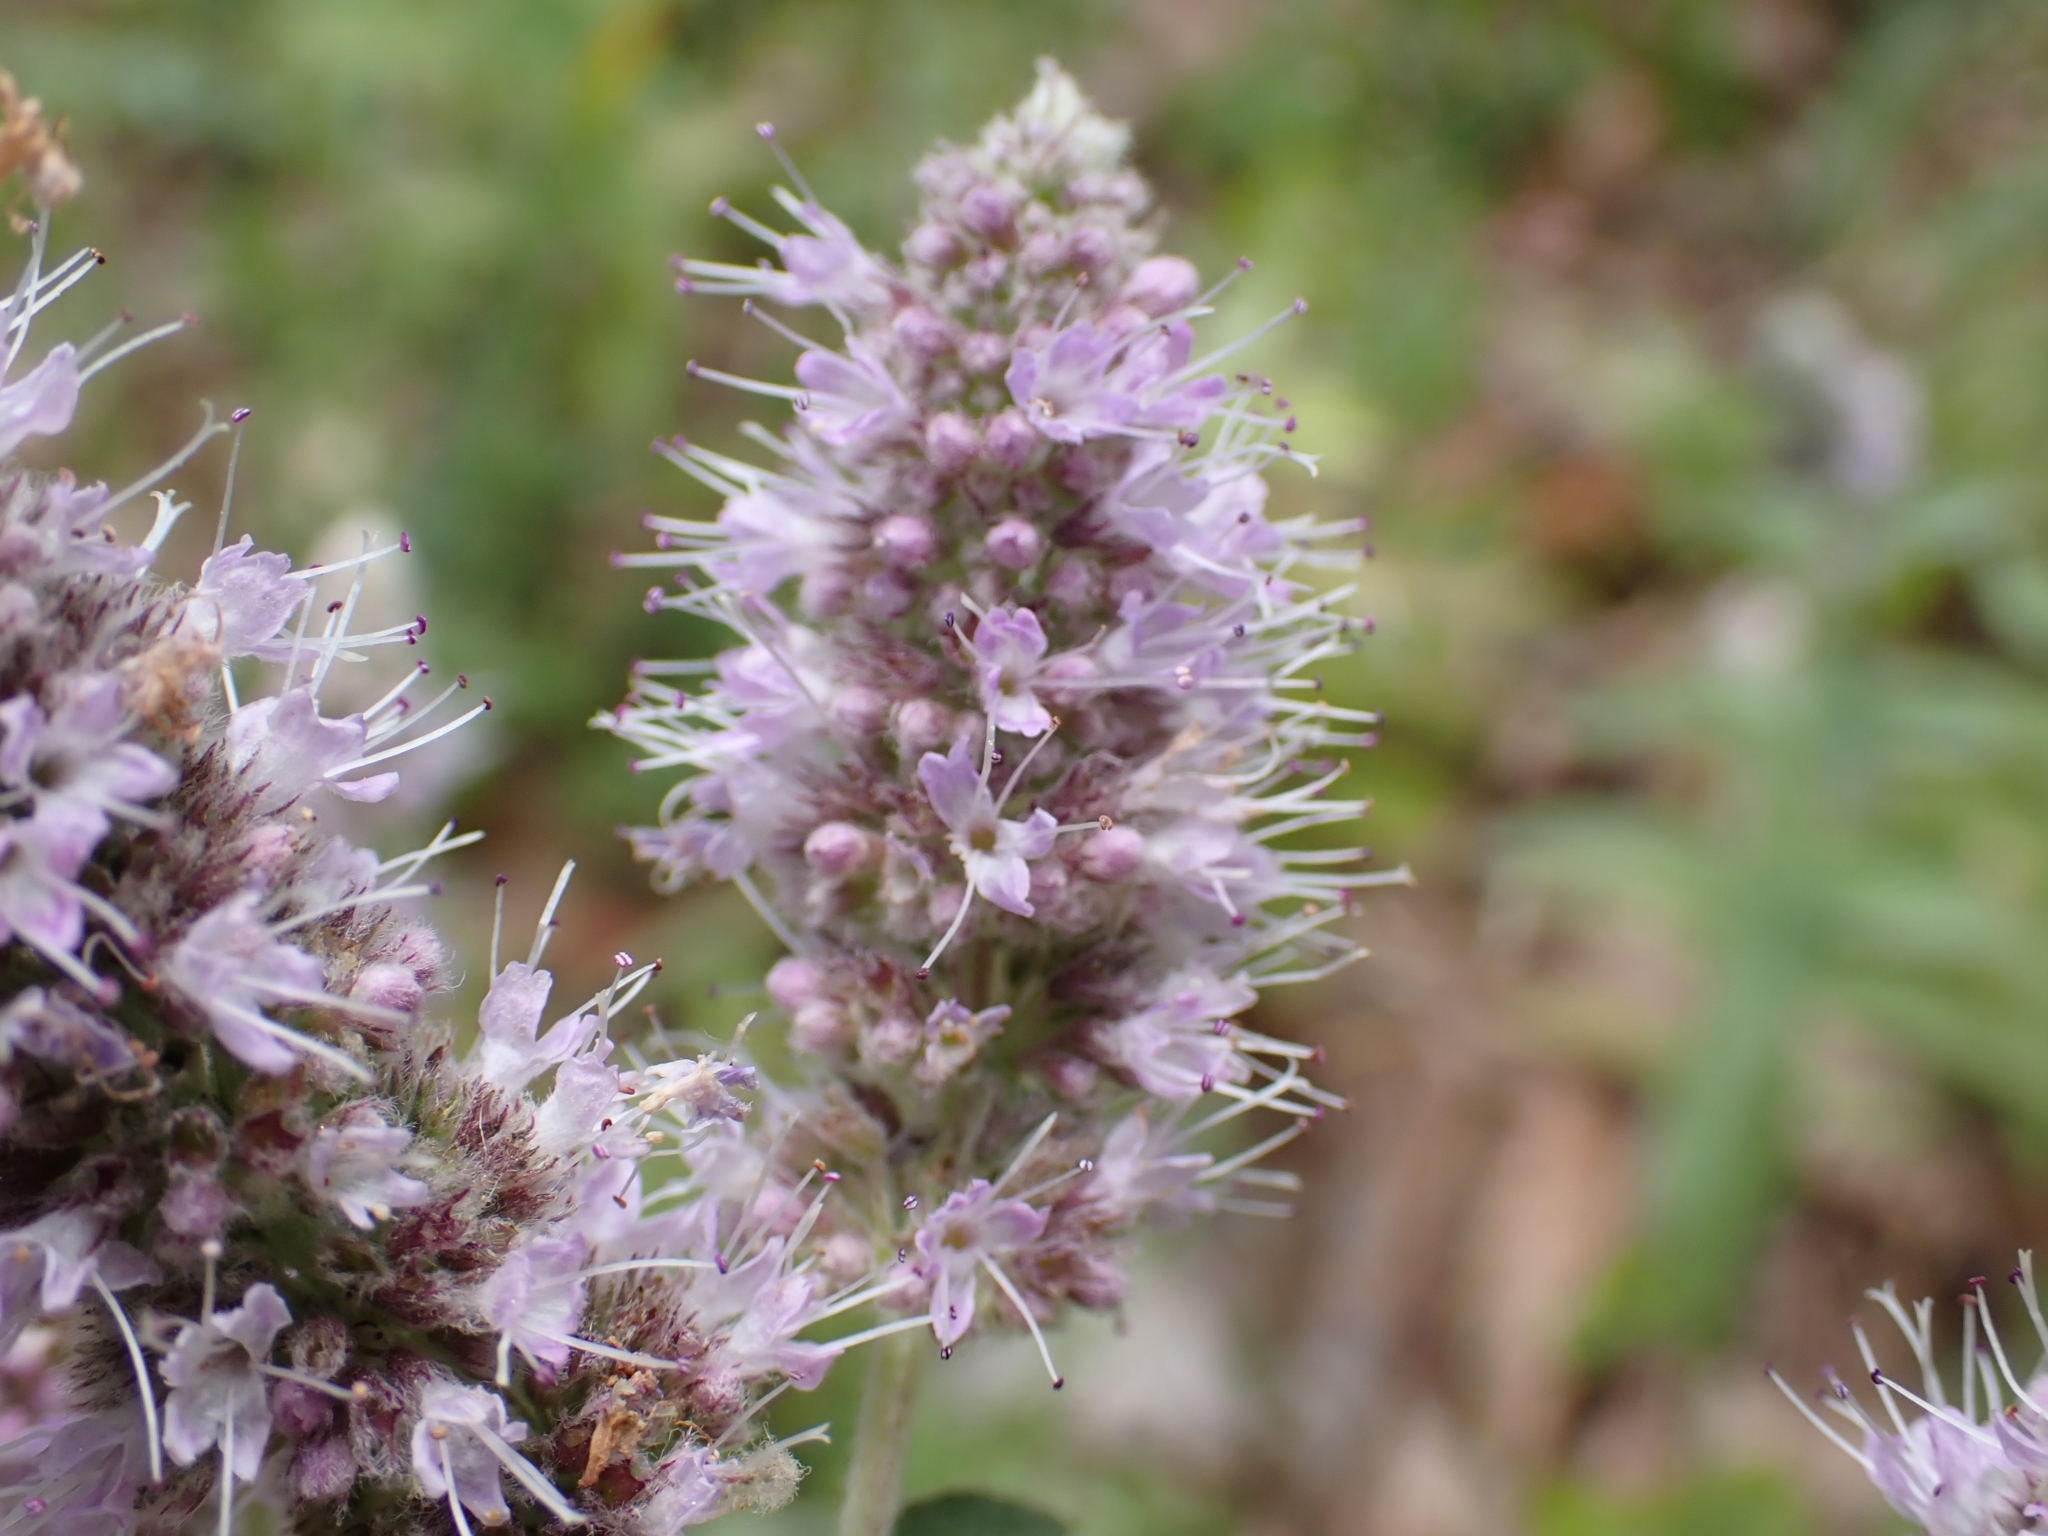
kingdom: Plantae
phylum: Tracheophyta
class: Magnoliopsida
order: Lamiales
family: Lamiaceae
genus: Mentha
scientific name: Mentha longifolia
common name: Horse mint
